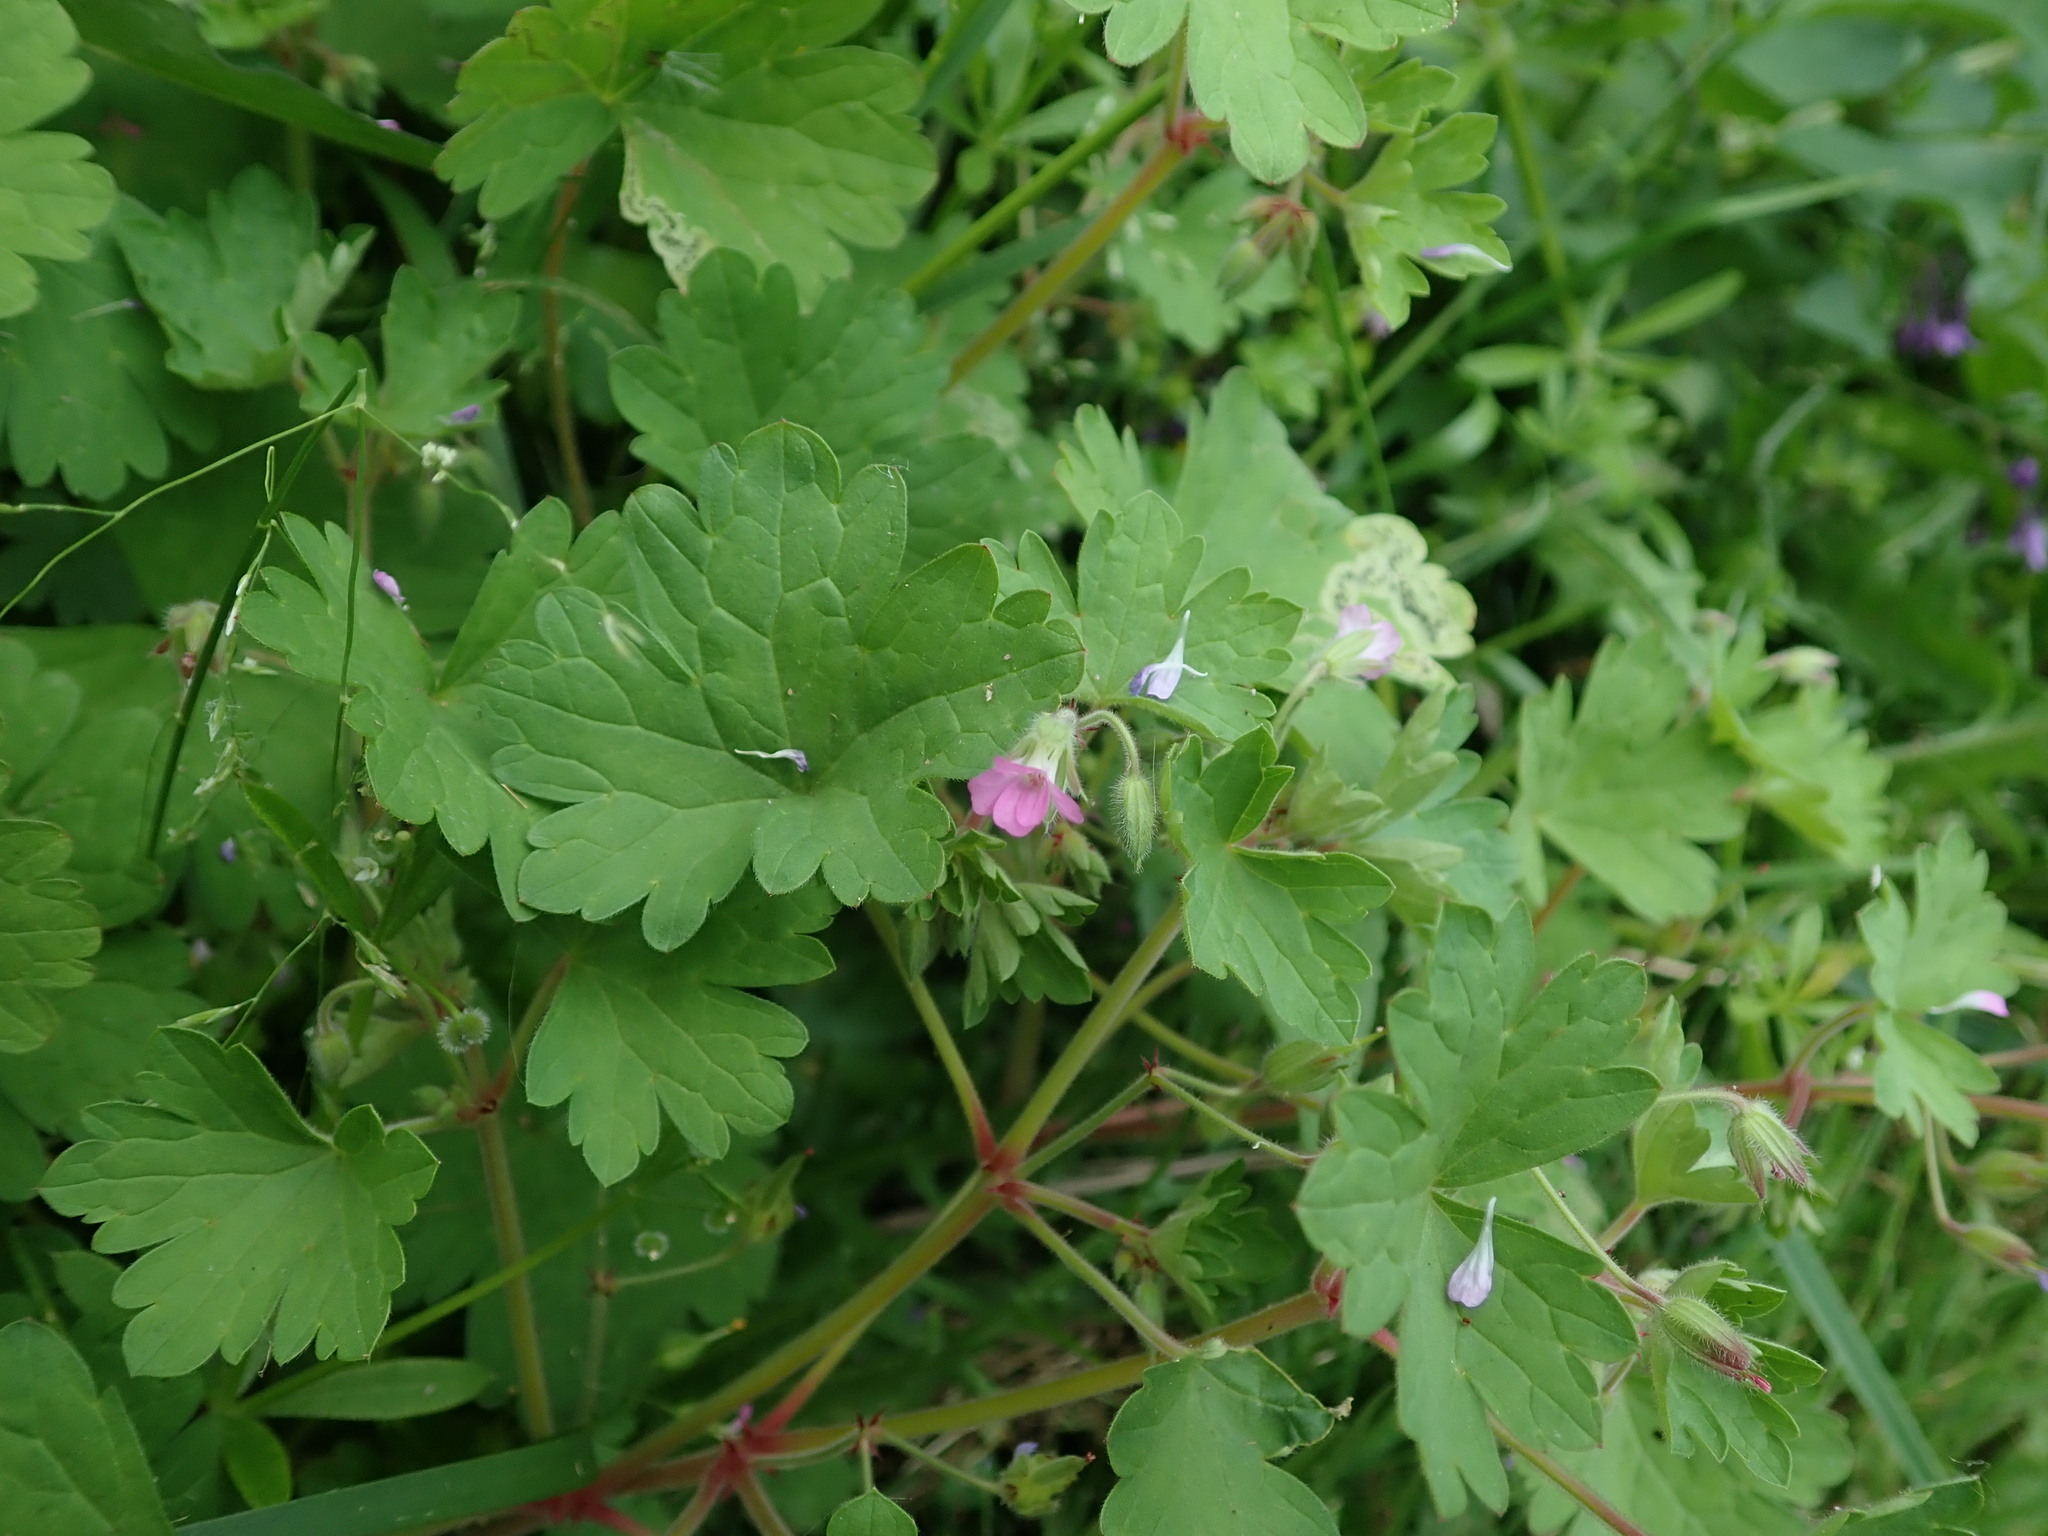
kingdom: Plantae
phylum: Tracheophyta
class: Magnoliopsida
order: Geraniales
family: Geraniaceae
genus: Geranium
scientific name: Geranium rotundifolium
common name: Round-leaved crane's-bill
